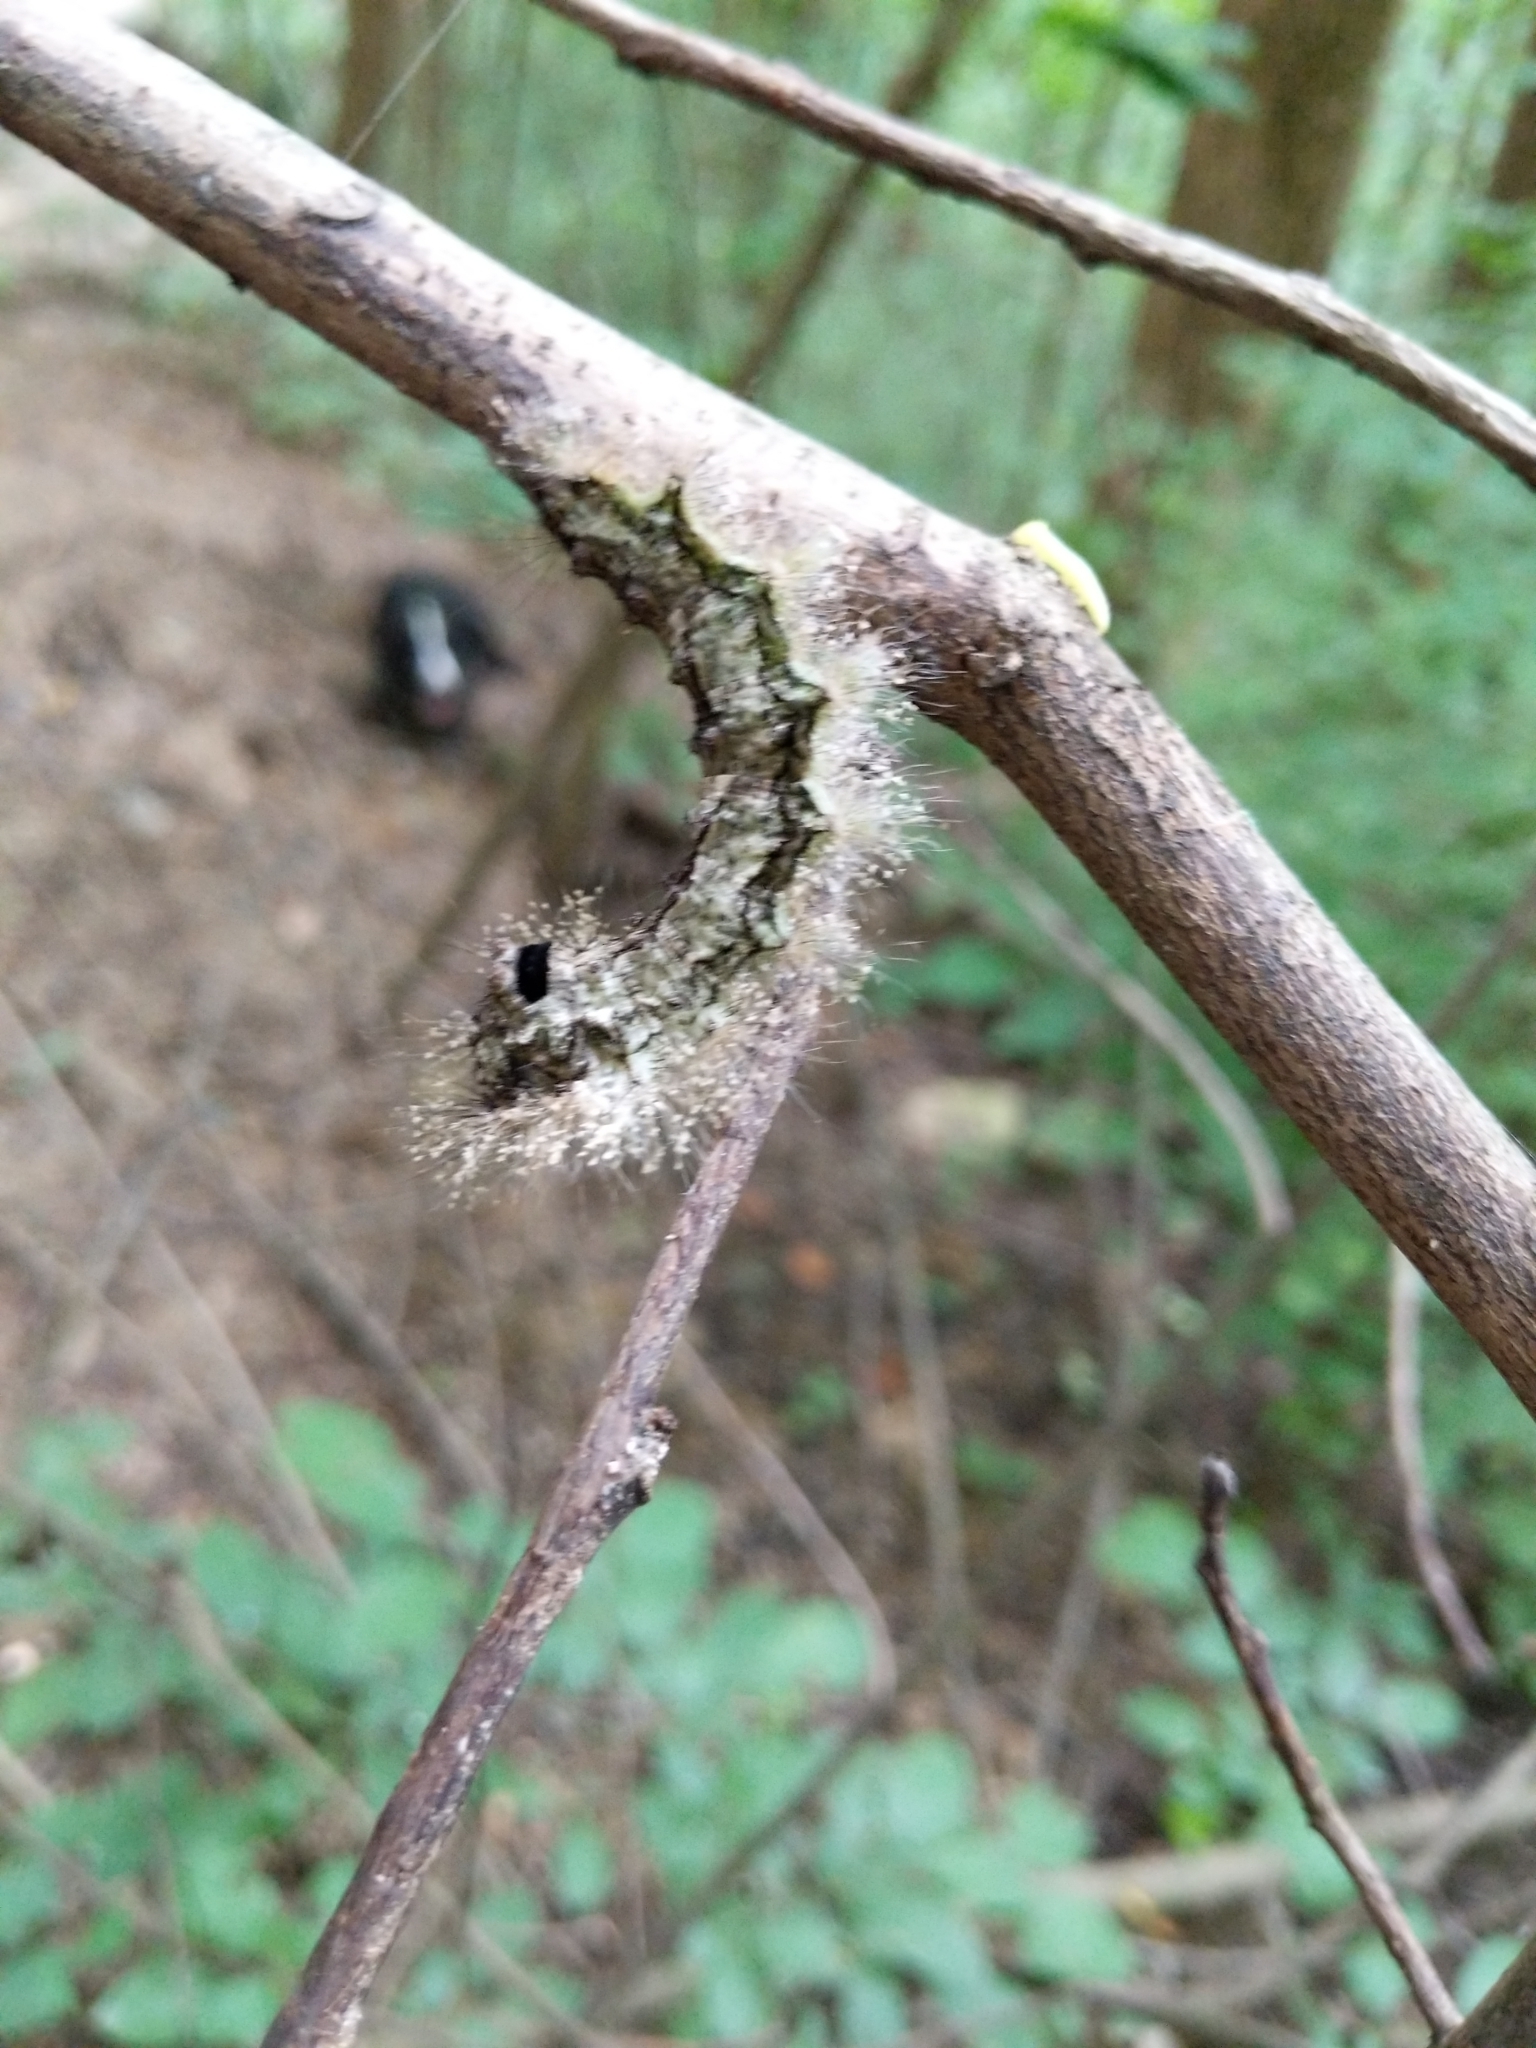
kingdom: Animalia
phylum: Arthropoda
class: Insecta
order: Lepidoptera
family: Lasiocampidae
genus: Tolype
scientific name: Tolype velleda
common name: Large tolype moth
